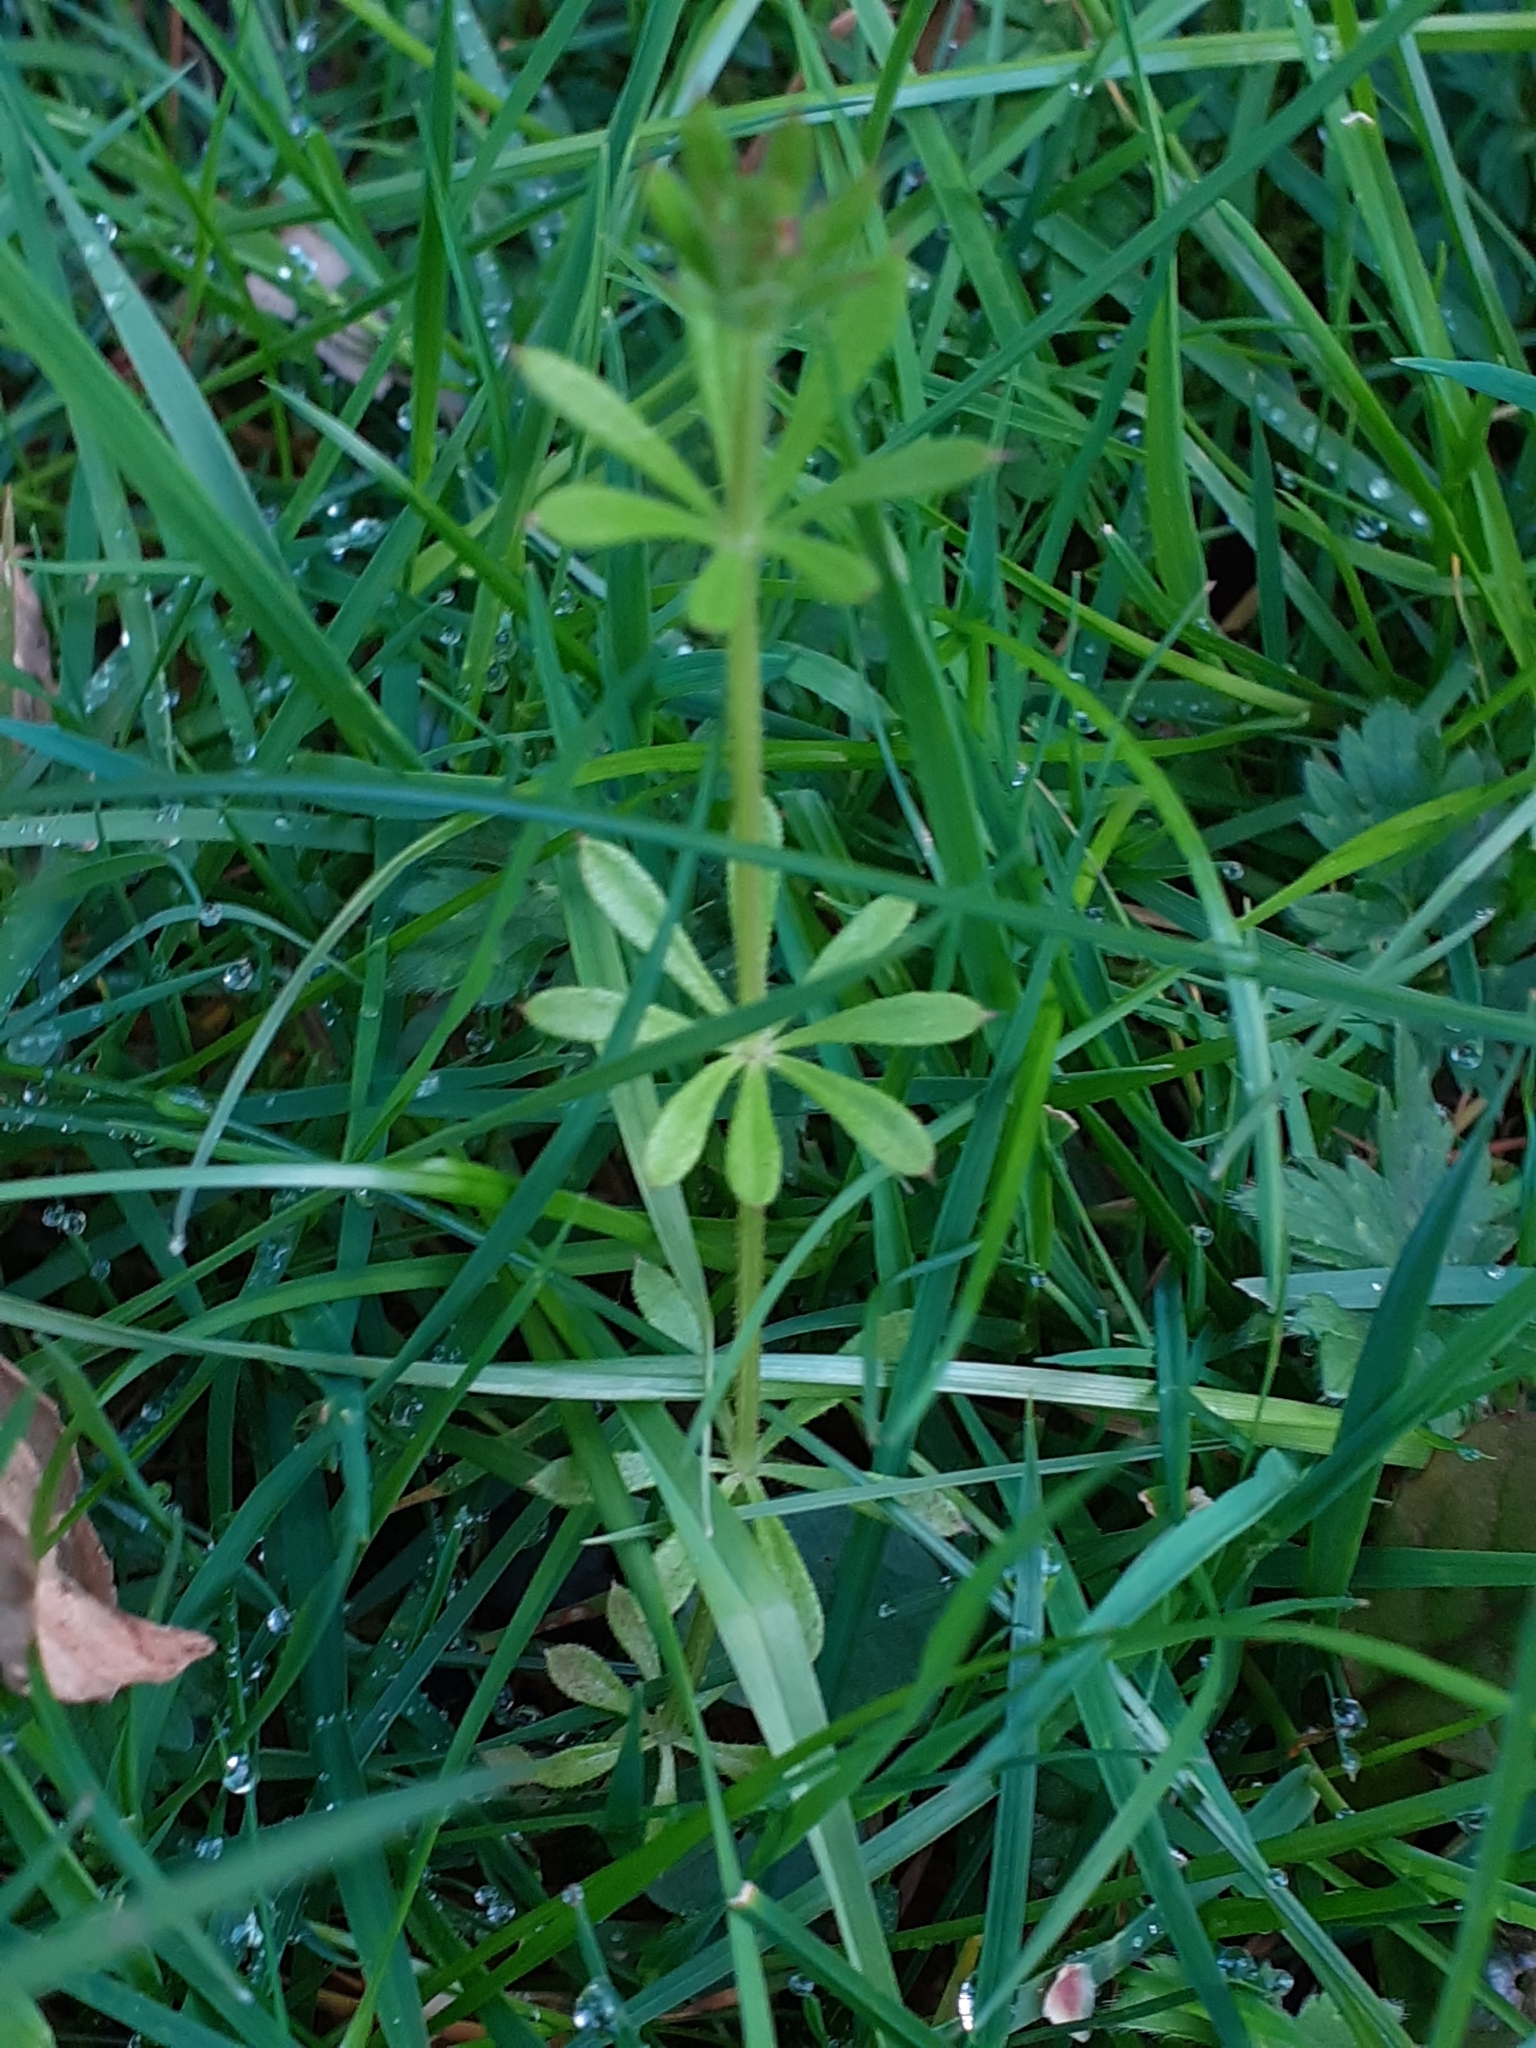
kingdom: Plantae
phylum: Tracheophyta
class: Magnoliopsida
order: Gentianales
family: Rubiaceae
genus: Galium
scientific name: Galium aparine
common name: Cleavers
